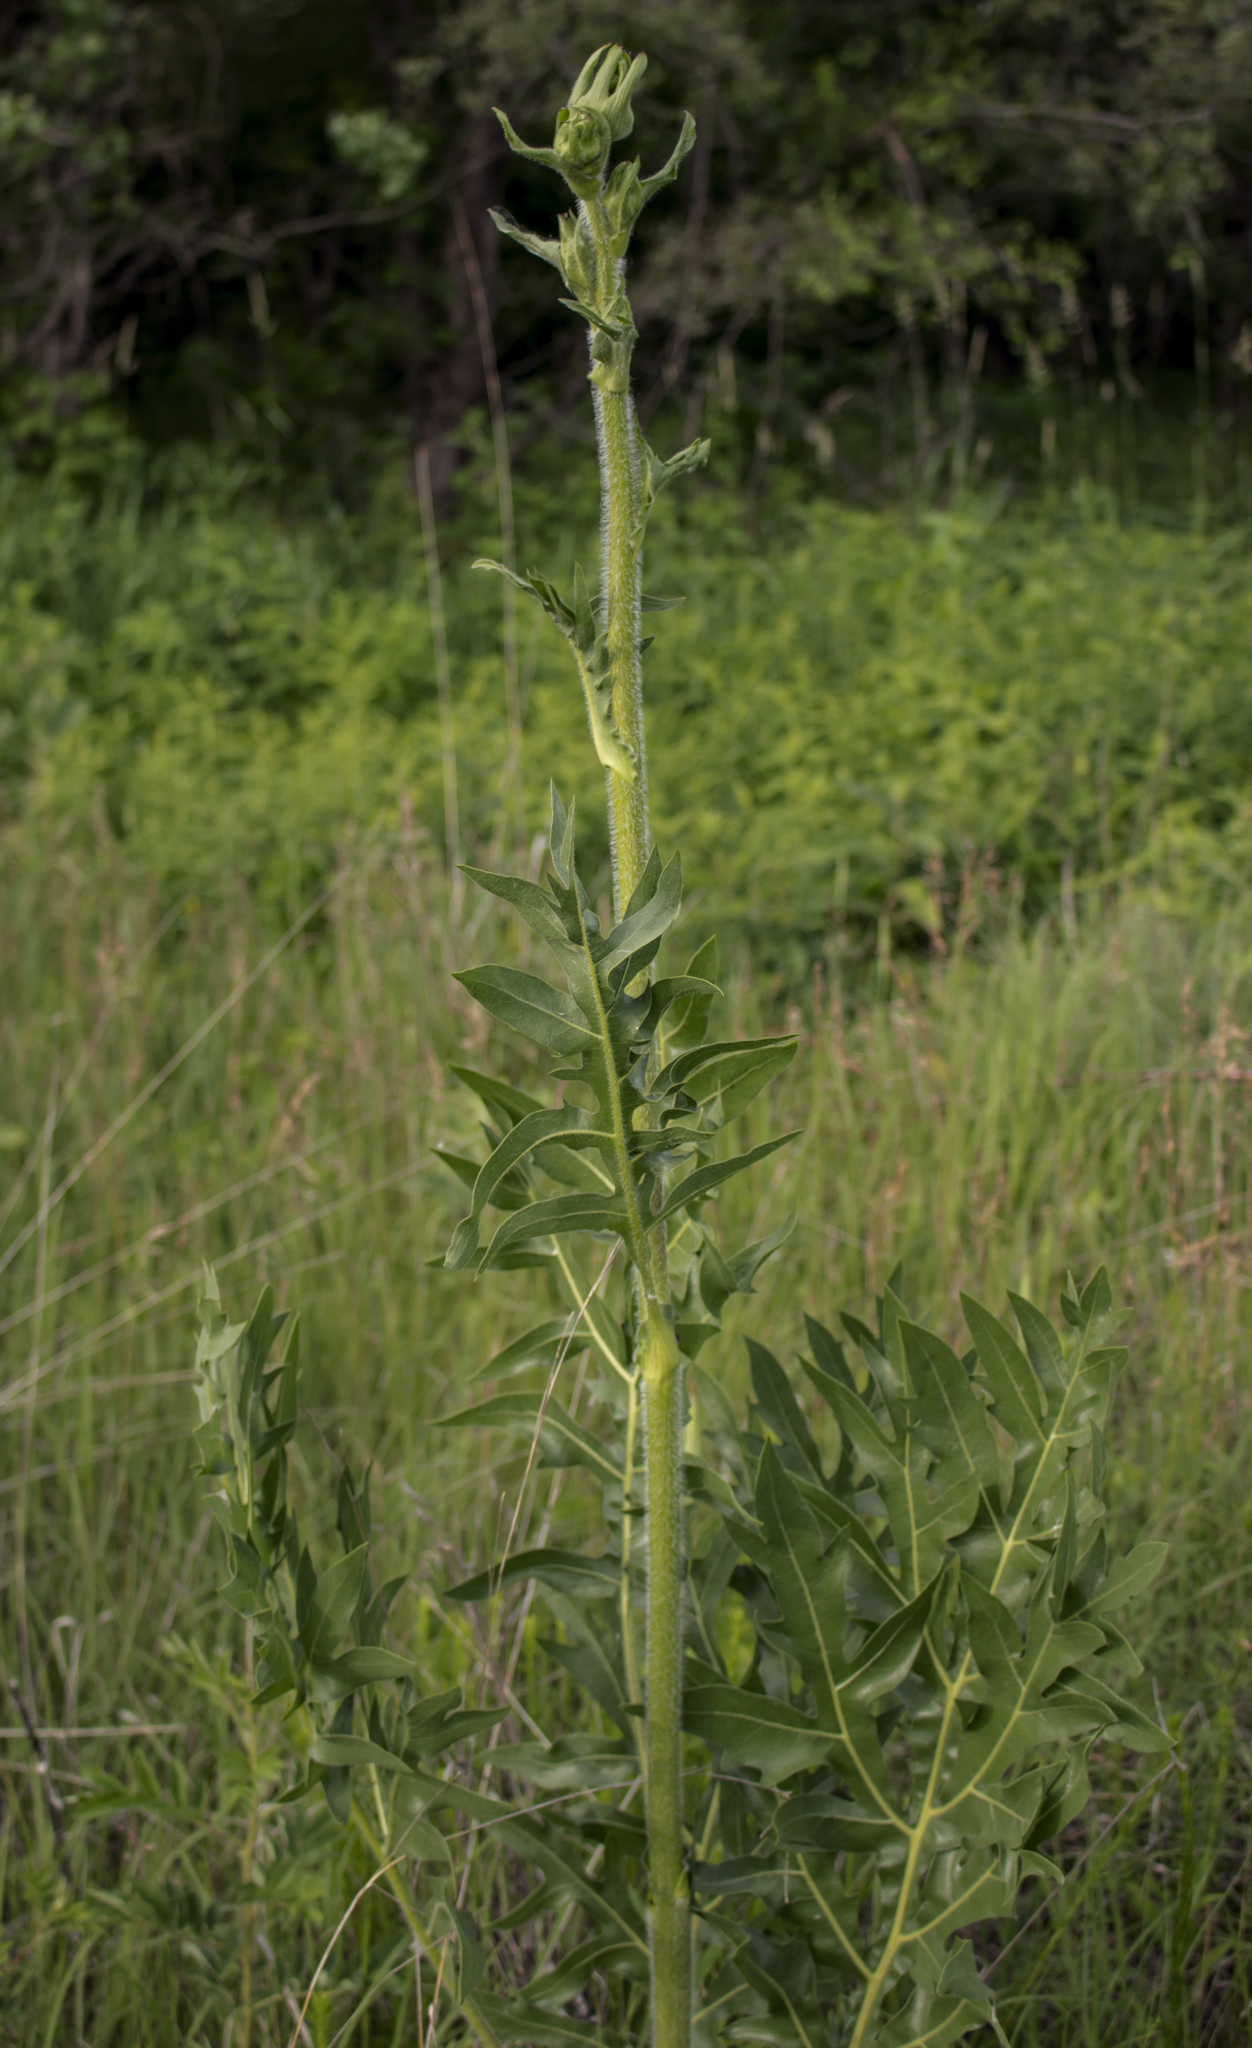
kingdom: Plantae
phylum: Tracheophyta
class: Magnoliopsida
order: Asterales
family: Asteraceae
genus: Silphium
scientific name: Silphium laciniatum
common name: Polarplant
